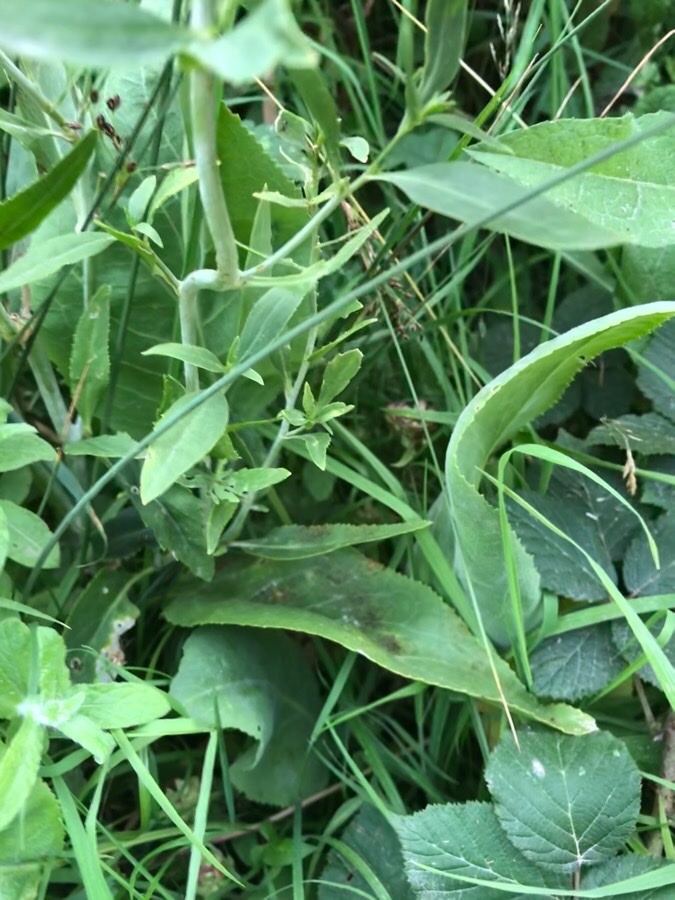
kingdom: Plantae
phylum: Tracheophyta
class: Magnoliopsida
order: Brassicales
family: Brassicaceae
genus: Lepidium
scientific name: Lepidium latifolium
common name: Dittander
